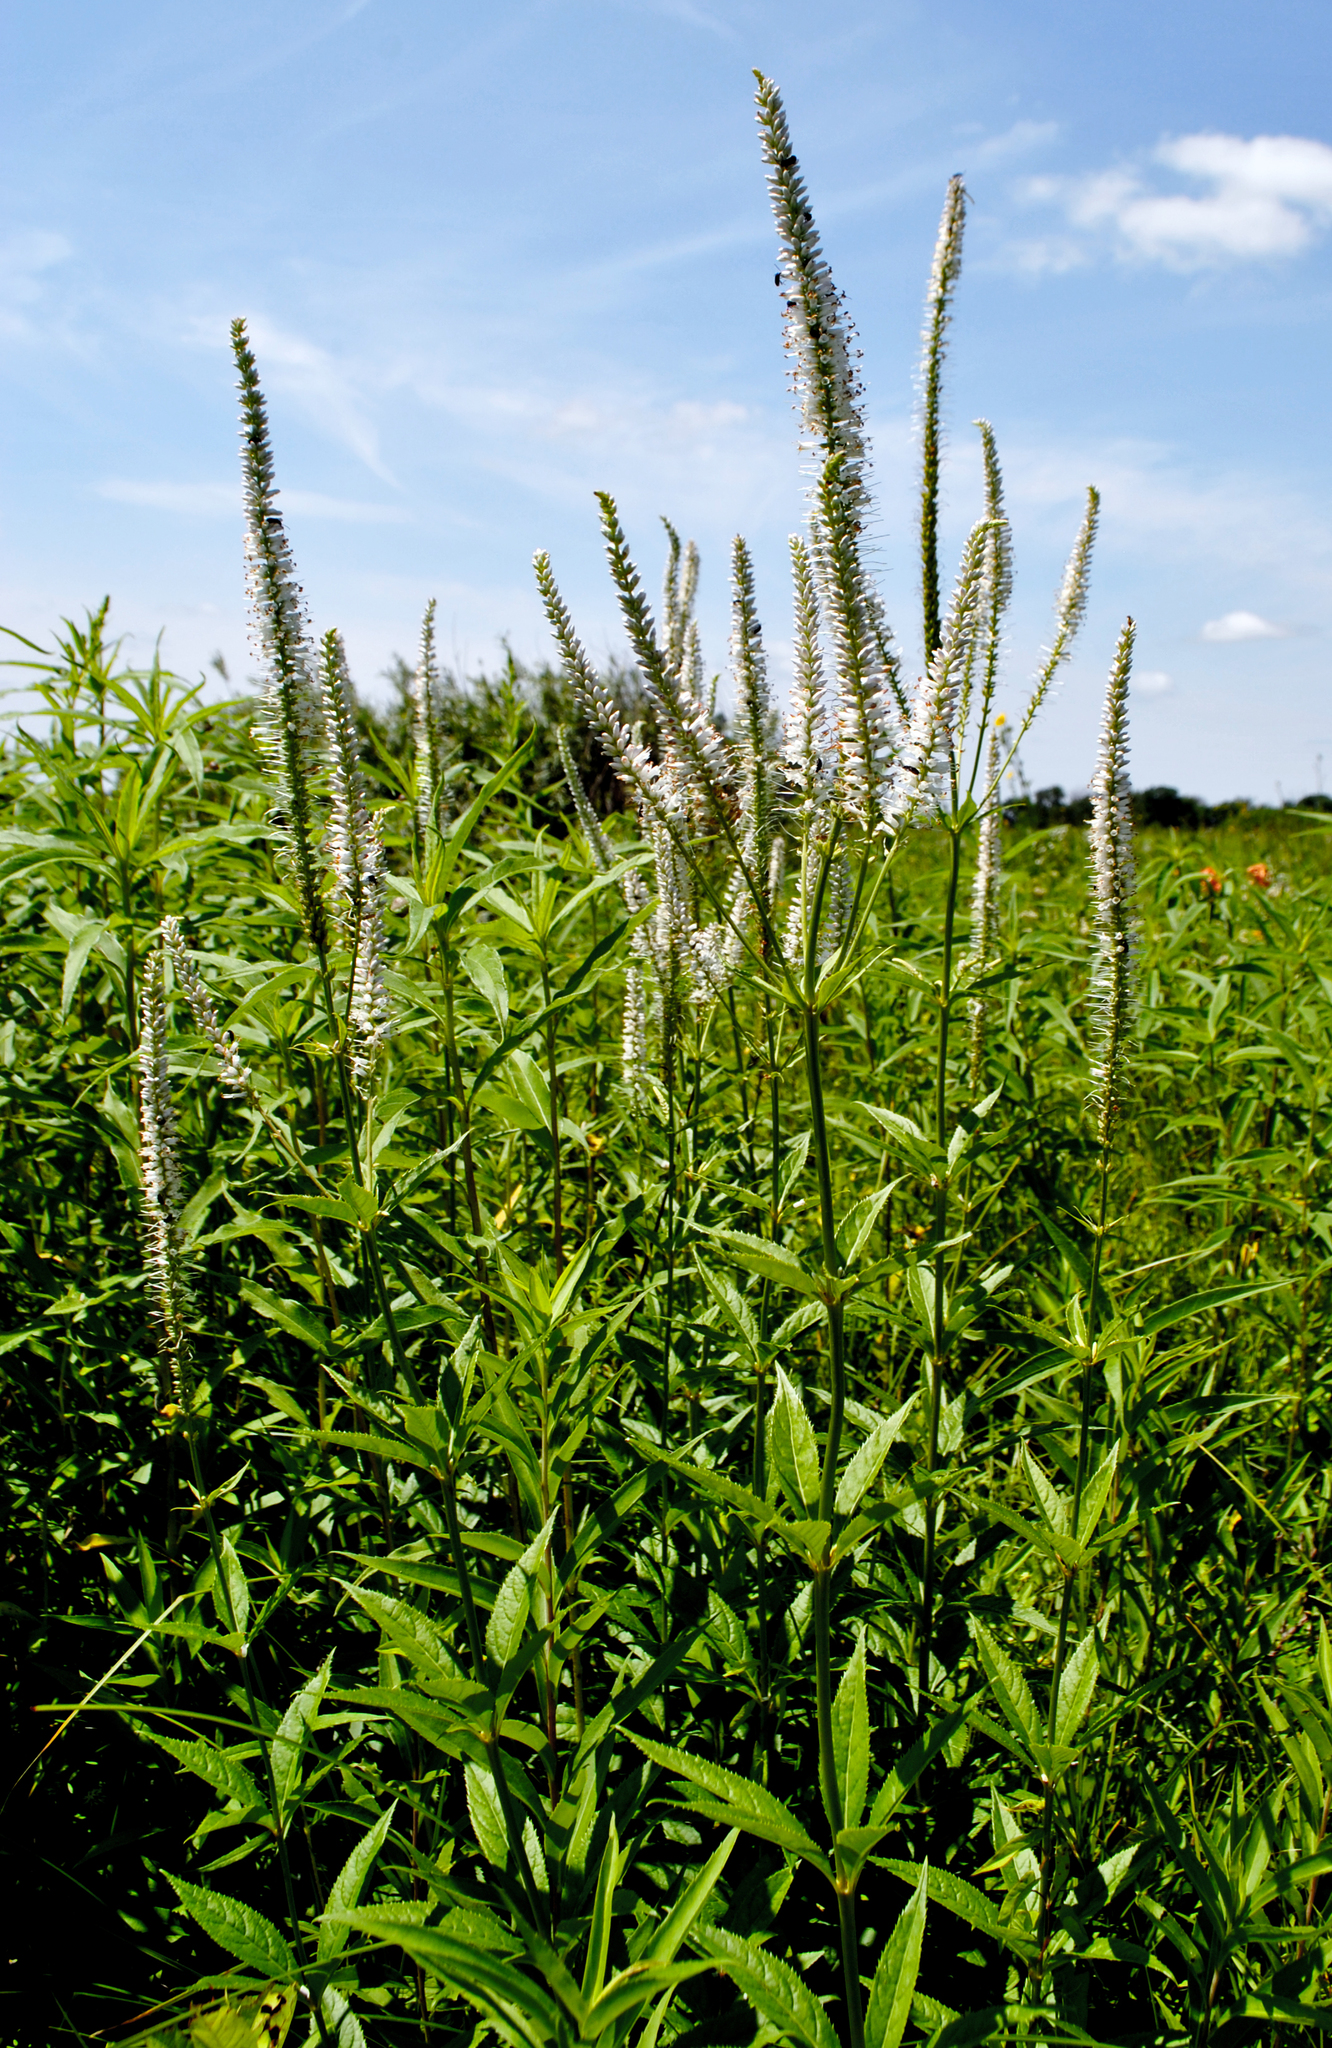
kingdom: Plantae
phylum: Tracheophyta
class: Magnoliopsida
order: Lamiales
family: Plantaginaceae
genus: Veronicastrum
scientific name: Veronicastrum virginicum
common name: Blackroot
